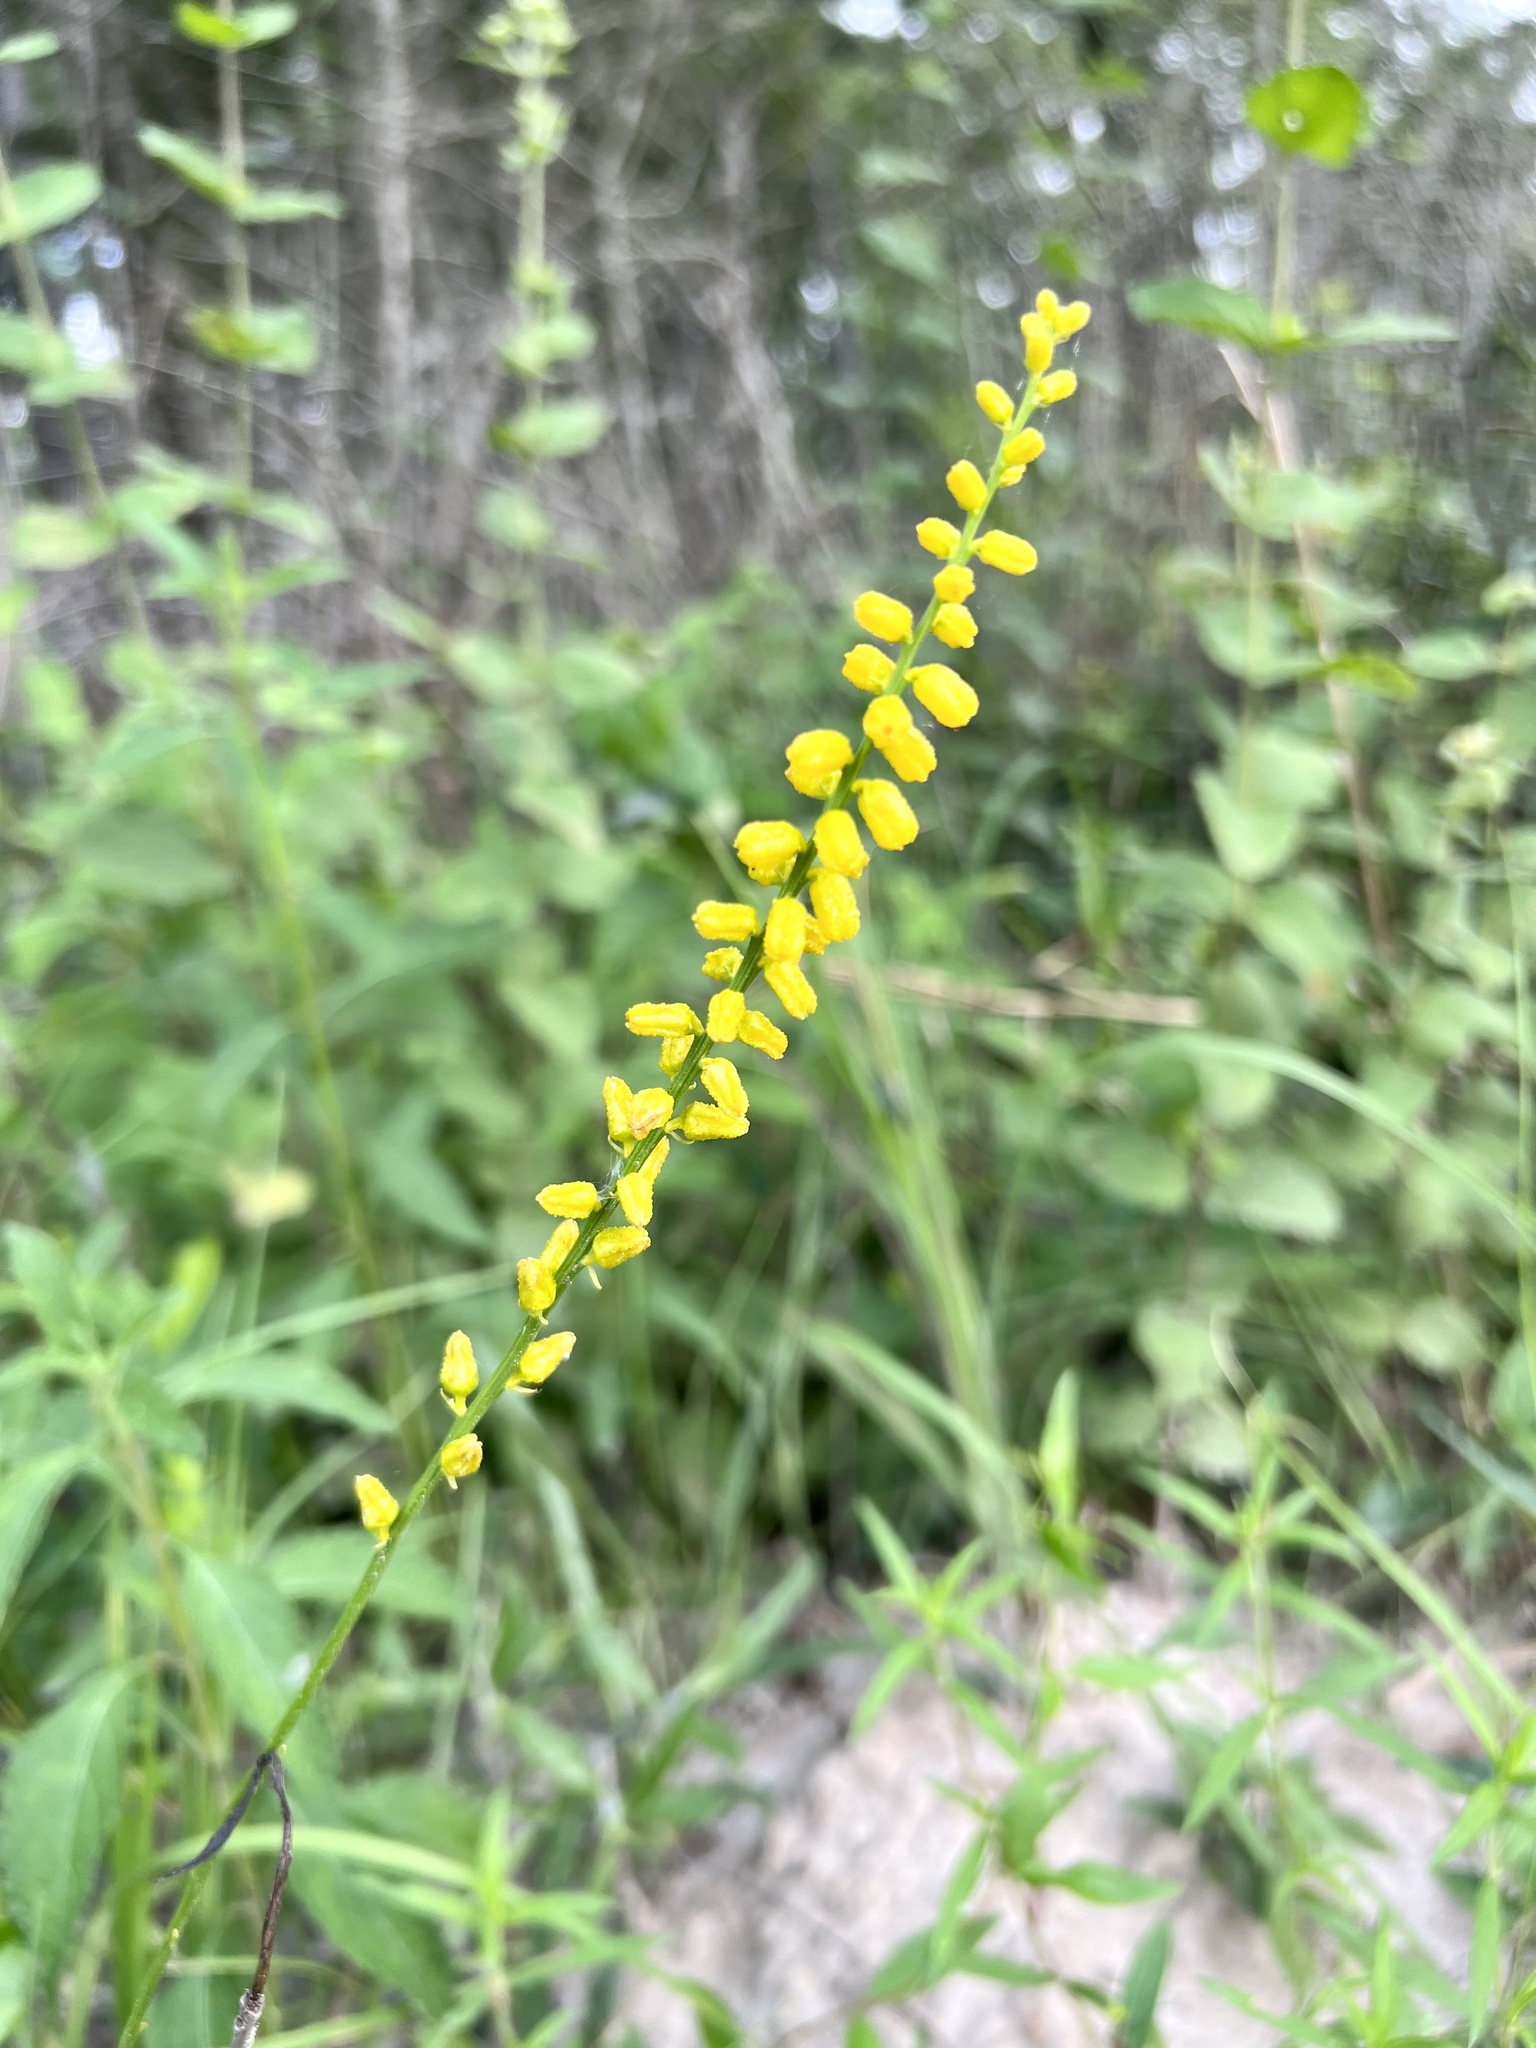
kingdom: Plantae
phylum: Tracheophyta
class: Liliopsida
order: Dioscoreales
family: Nartheciaceae
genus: Aletris
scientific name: Aletris aurea
